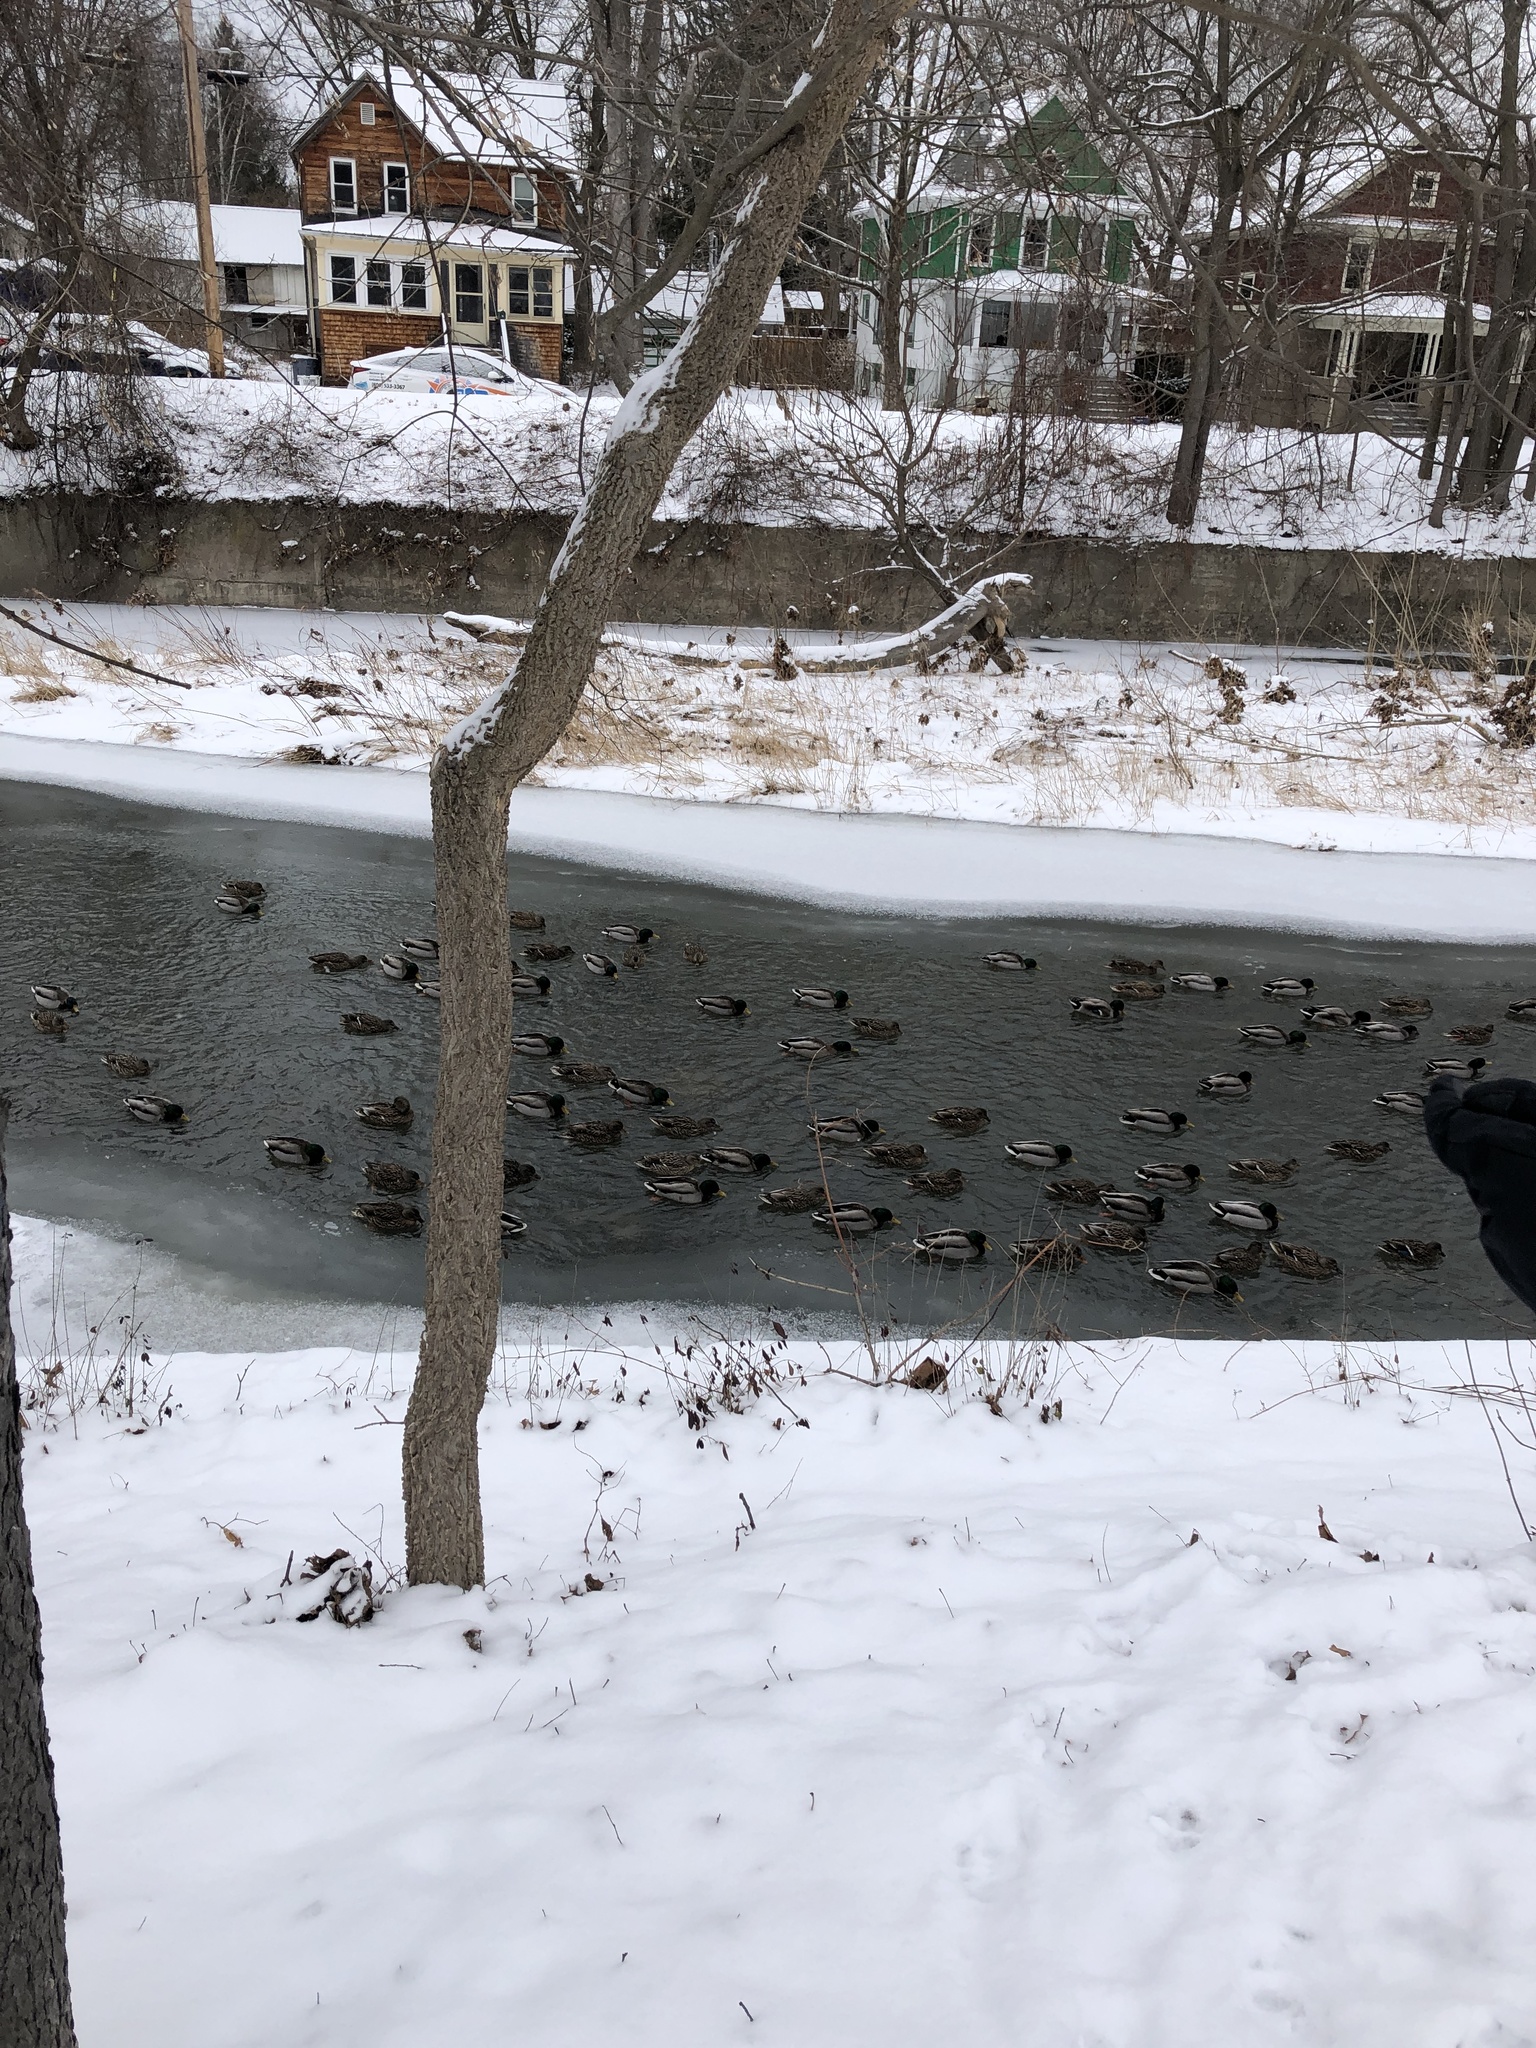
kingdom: Animalia
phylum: Chordata
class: Aves
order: Anseriformes
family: Anatidae
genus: Anas
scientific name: Anas platyrhynchos
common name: Mallard
